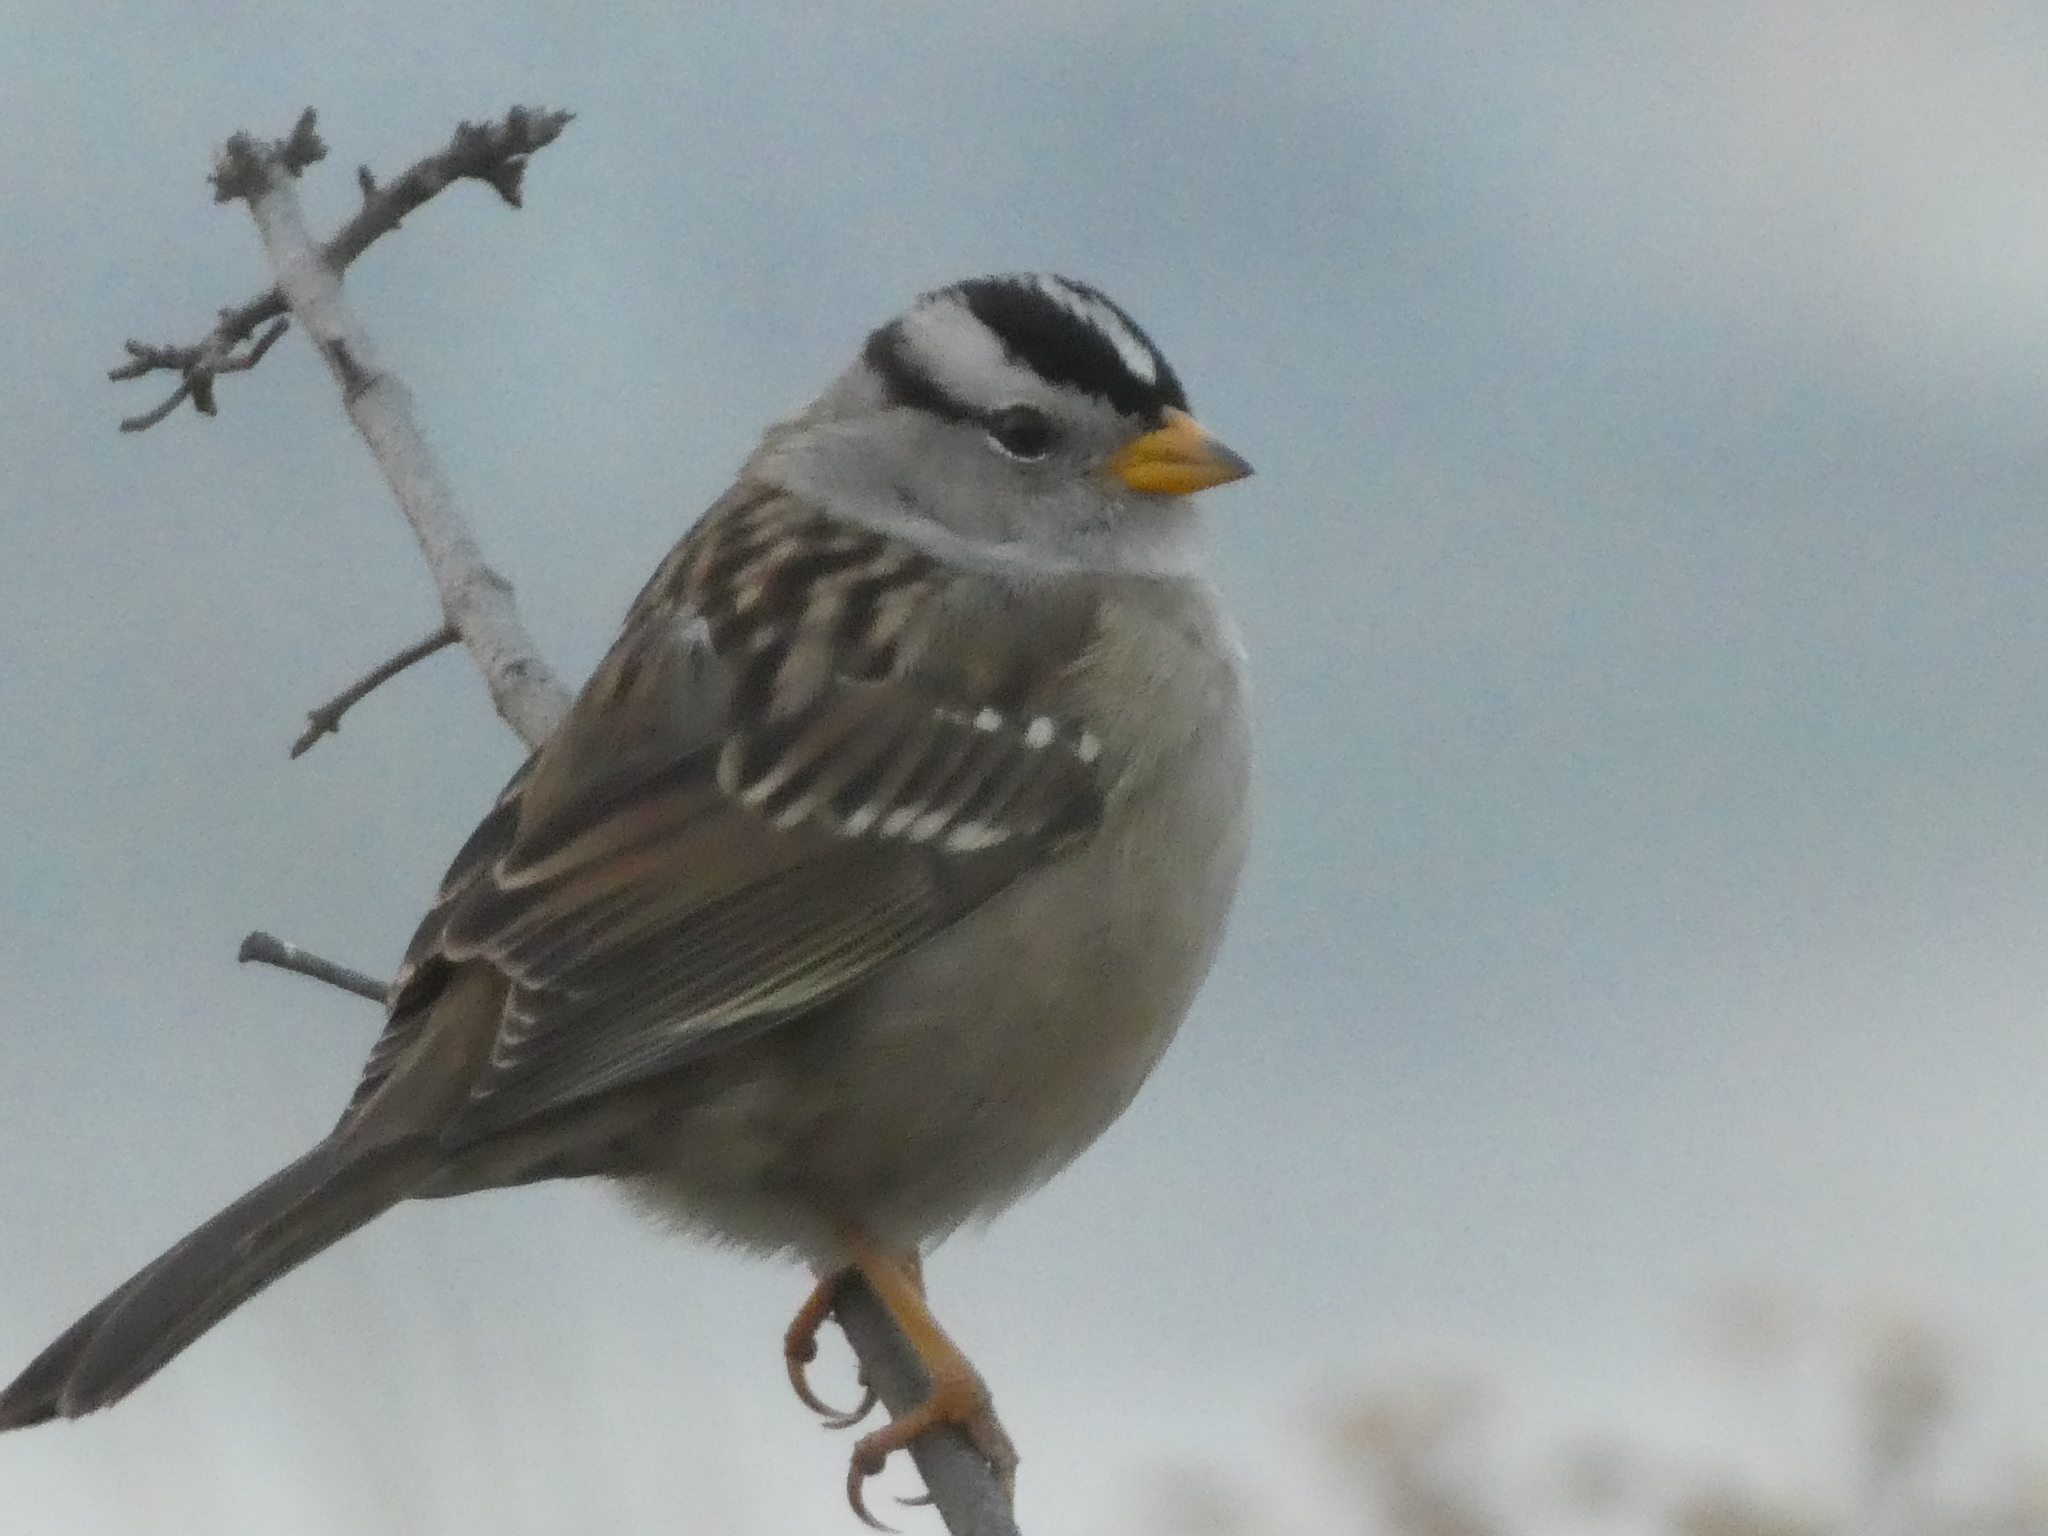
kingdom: Animalia
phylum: Chordata
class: Aves
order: Passeriformes
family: Passerellidae
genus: Zonotrichia
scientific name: Zonotrichia leucophrys
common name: White-crowned sparrow
